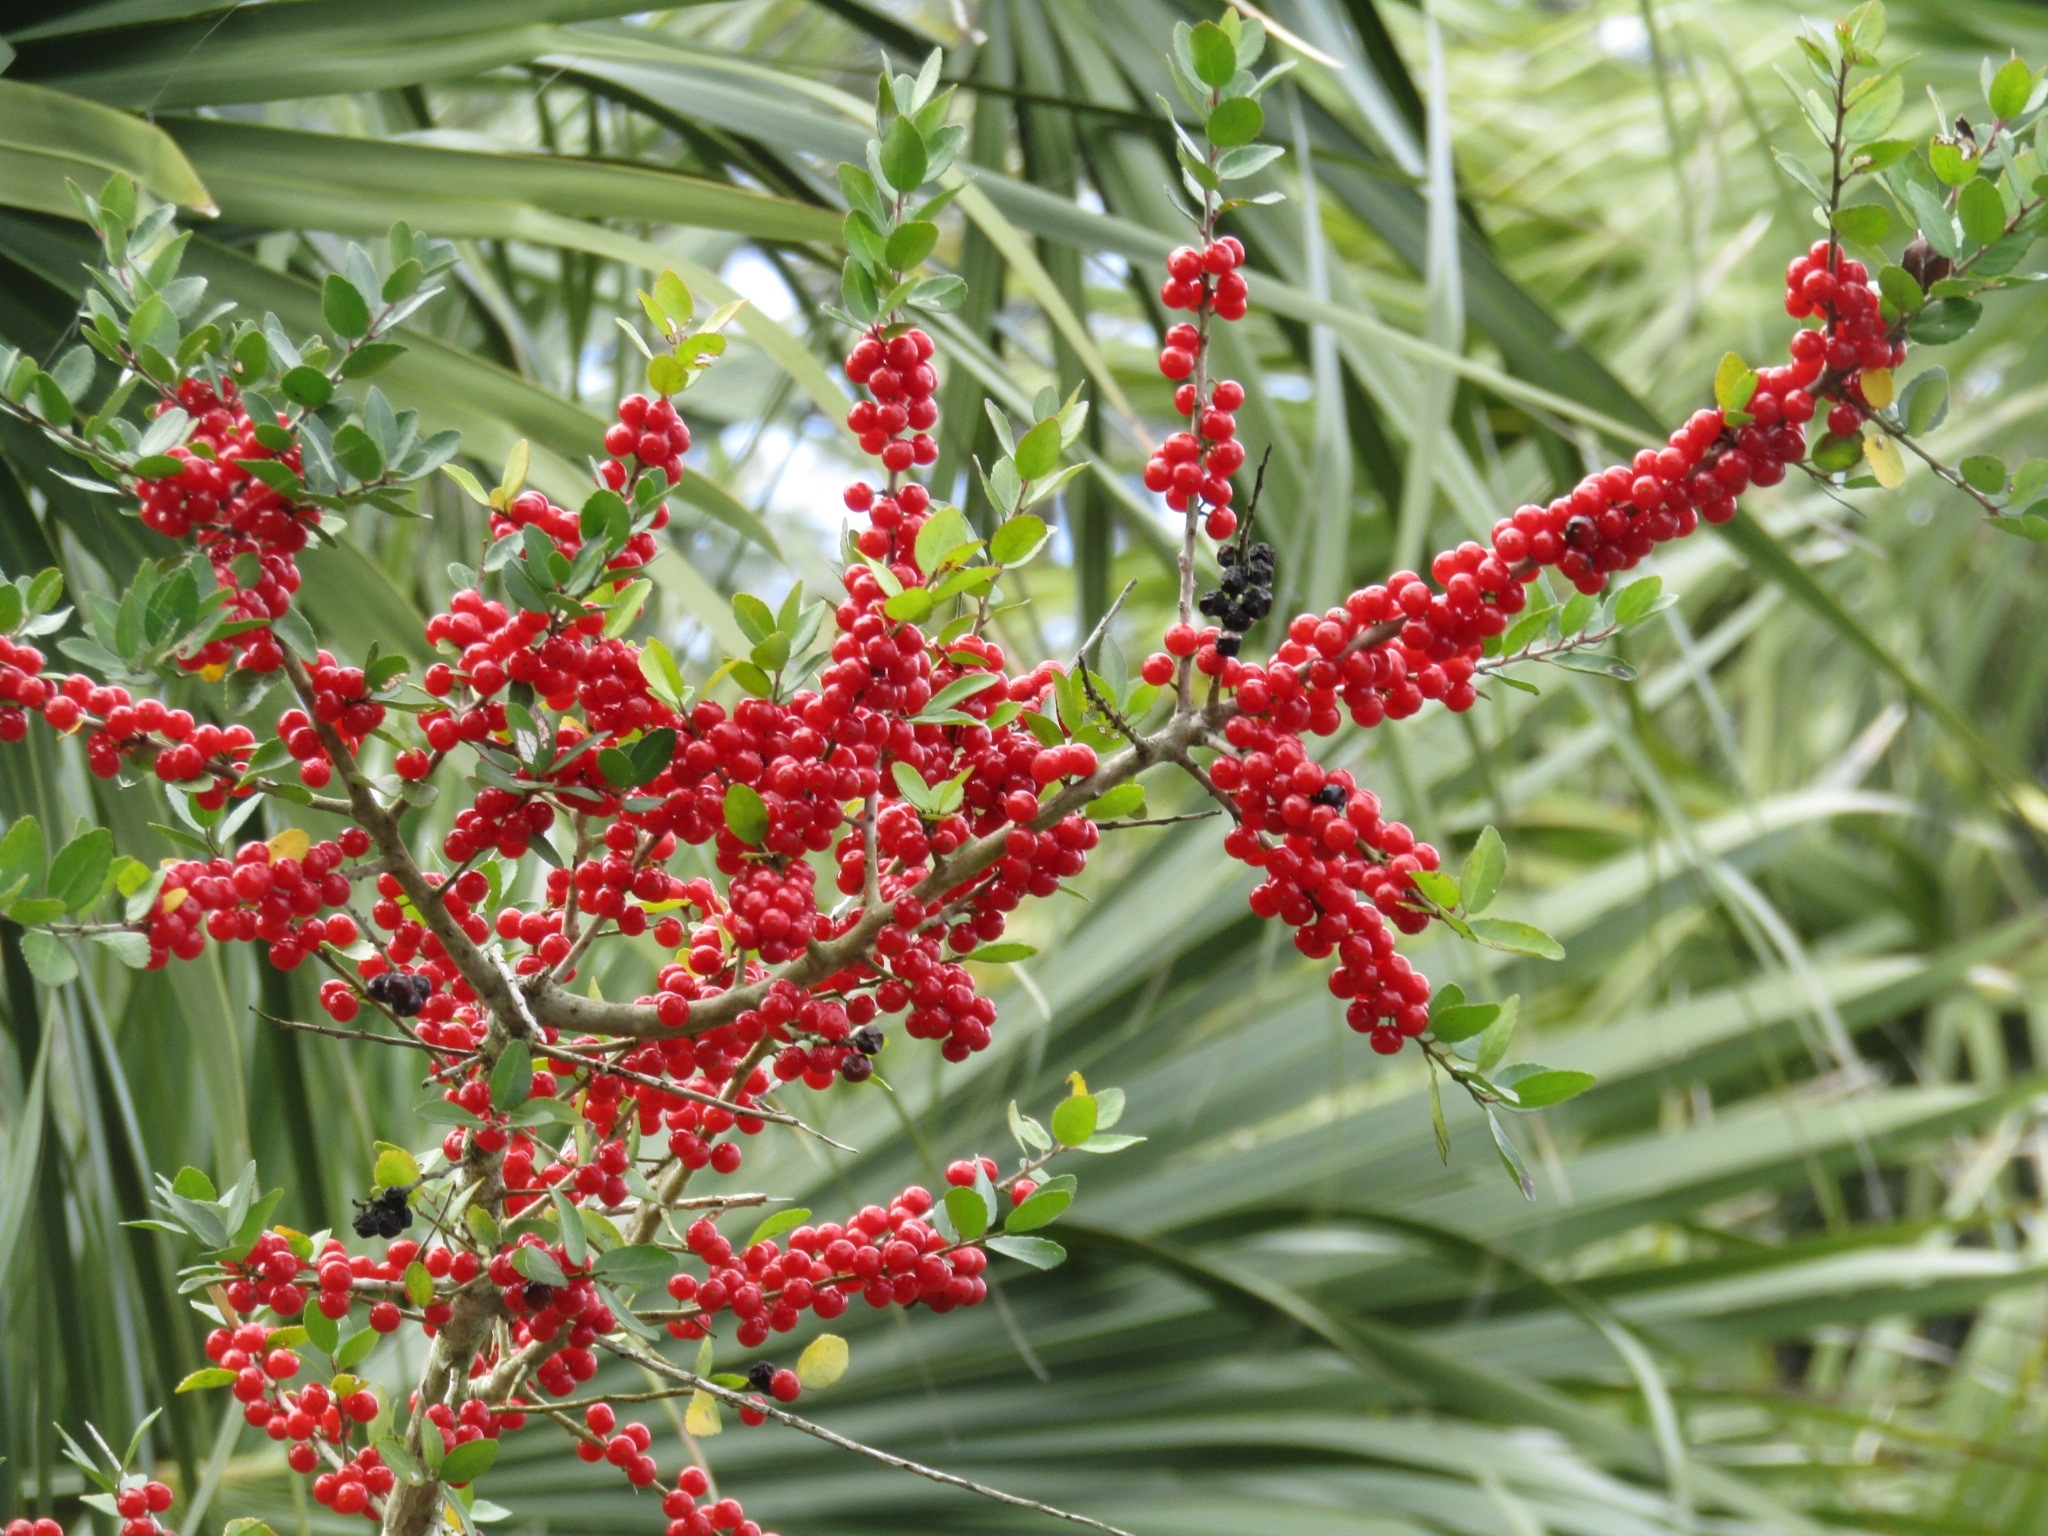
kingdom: Plantae
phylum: Tracheophyta
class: Magnoliopsida
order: Aquifoliales
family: Aquifoliaceae
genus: Ilex
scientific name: Ilex vomitoria
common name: Yaupon holly
